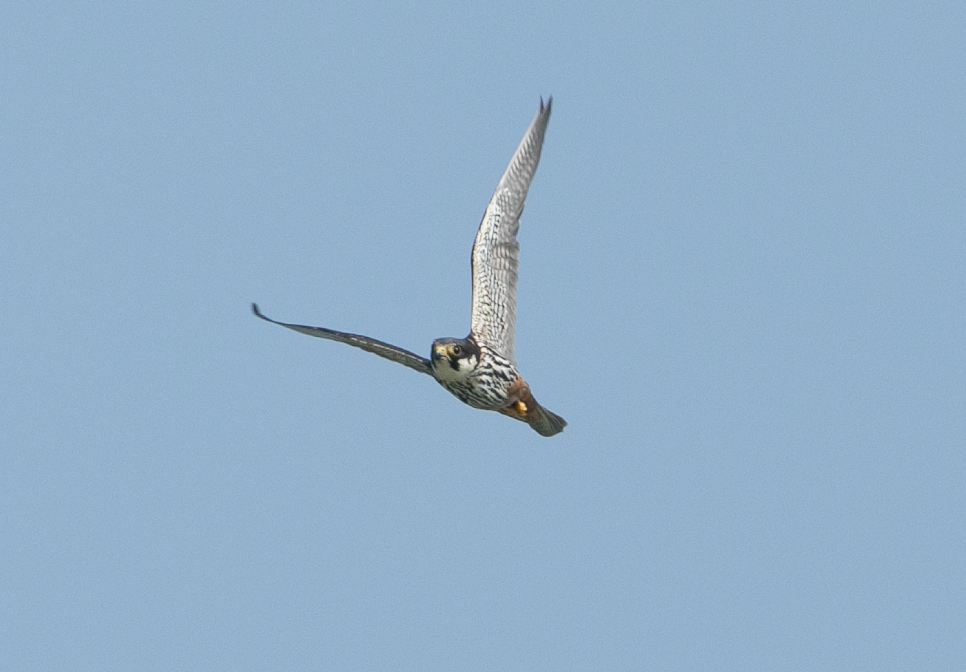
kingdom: Animalia
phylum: Chordata
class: Aves
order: Falconiformes
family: Falconidae
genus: Falco
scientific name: Falco subbuteo
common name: Eurasian hobby
